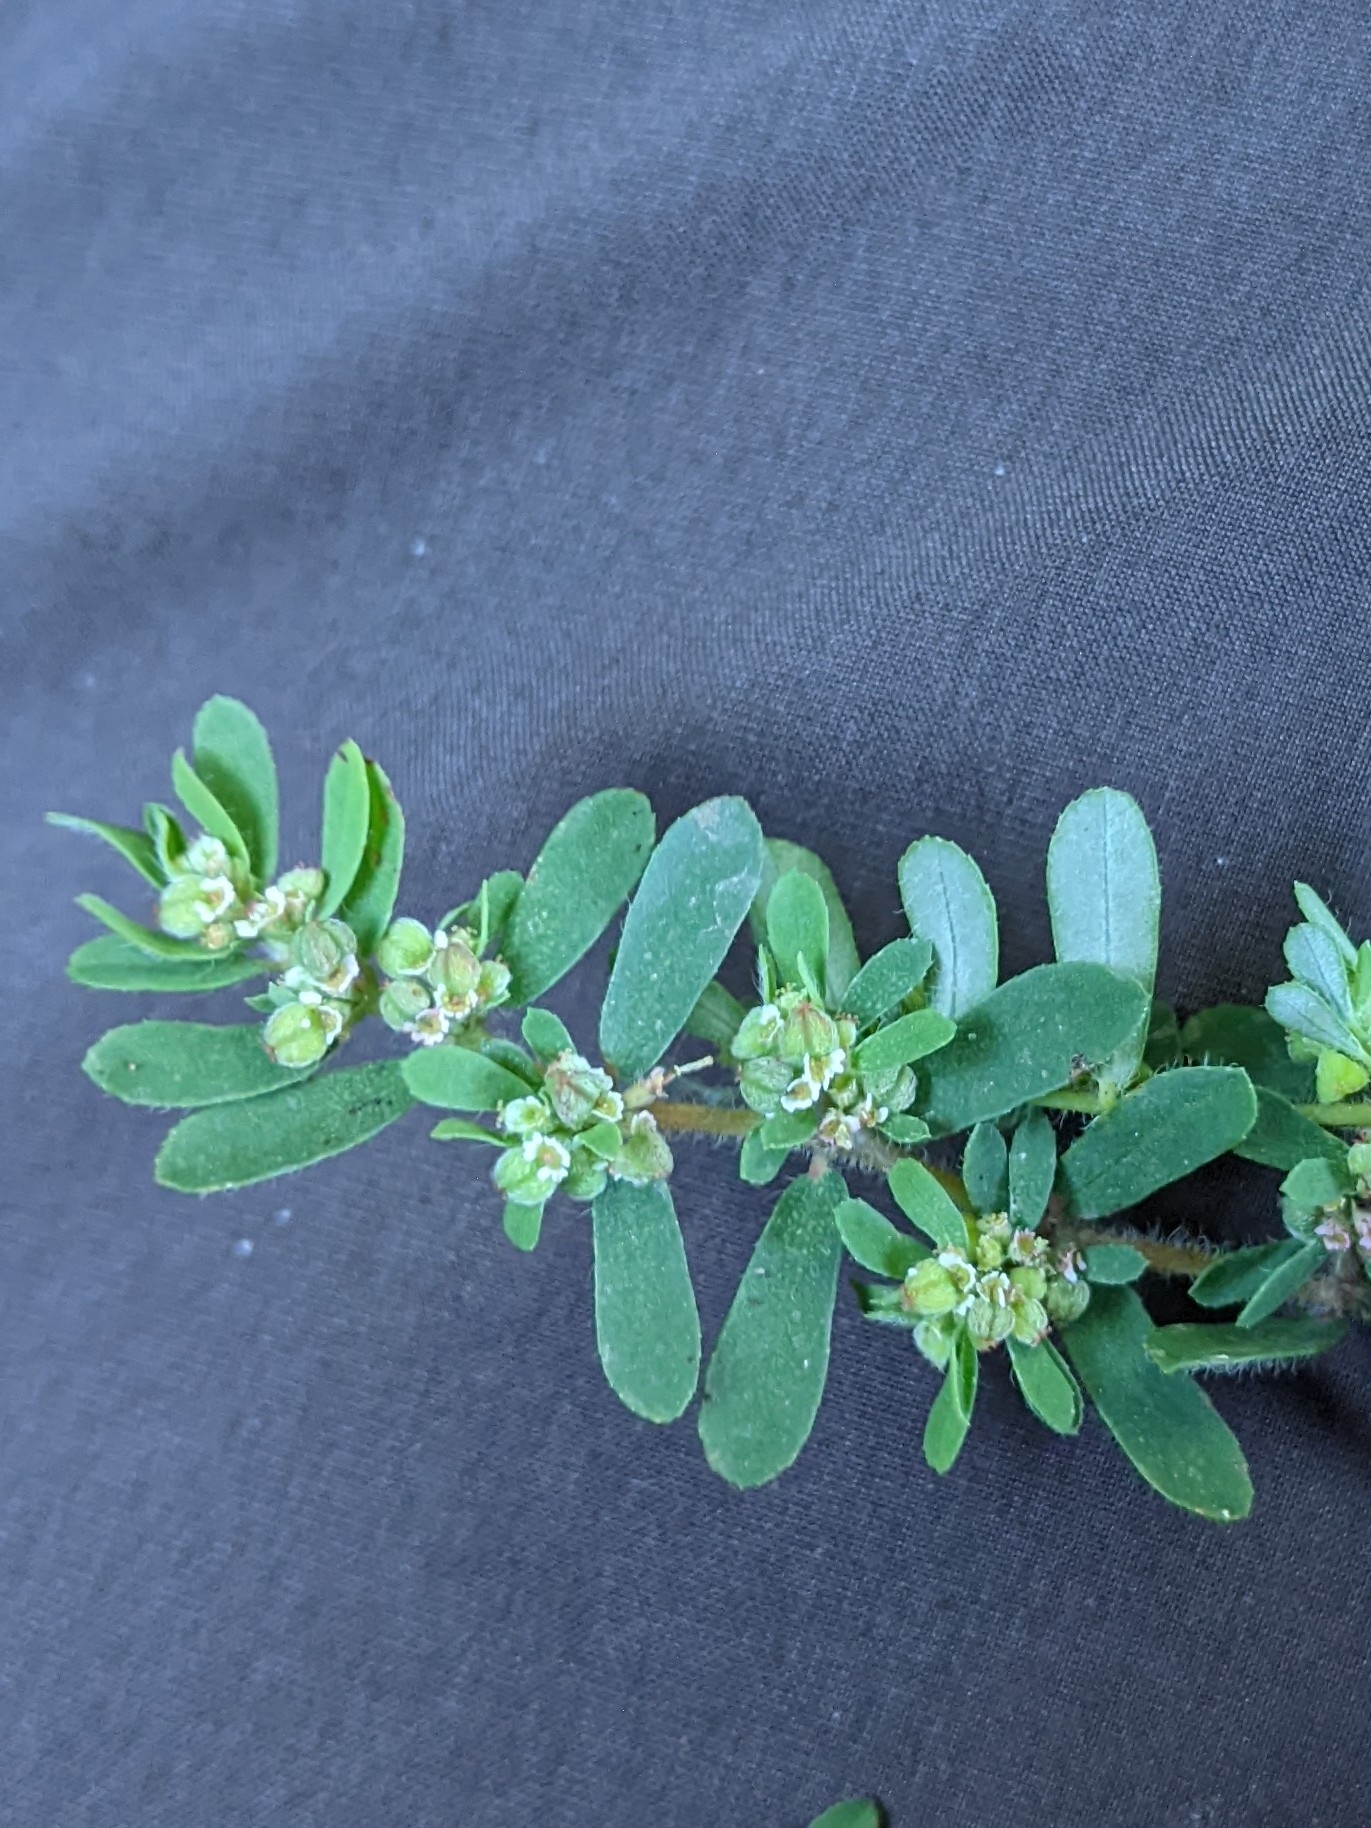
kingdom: Plantae
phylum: Tracheophyta
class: Magnoliopsida
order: Malpighiales
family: Euphorbiaceae
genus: Euphorbia
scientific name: Euphorbia maculata
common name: Spotted spurge
